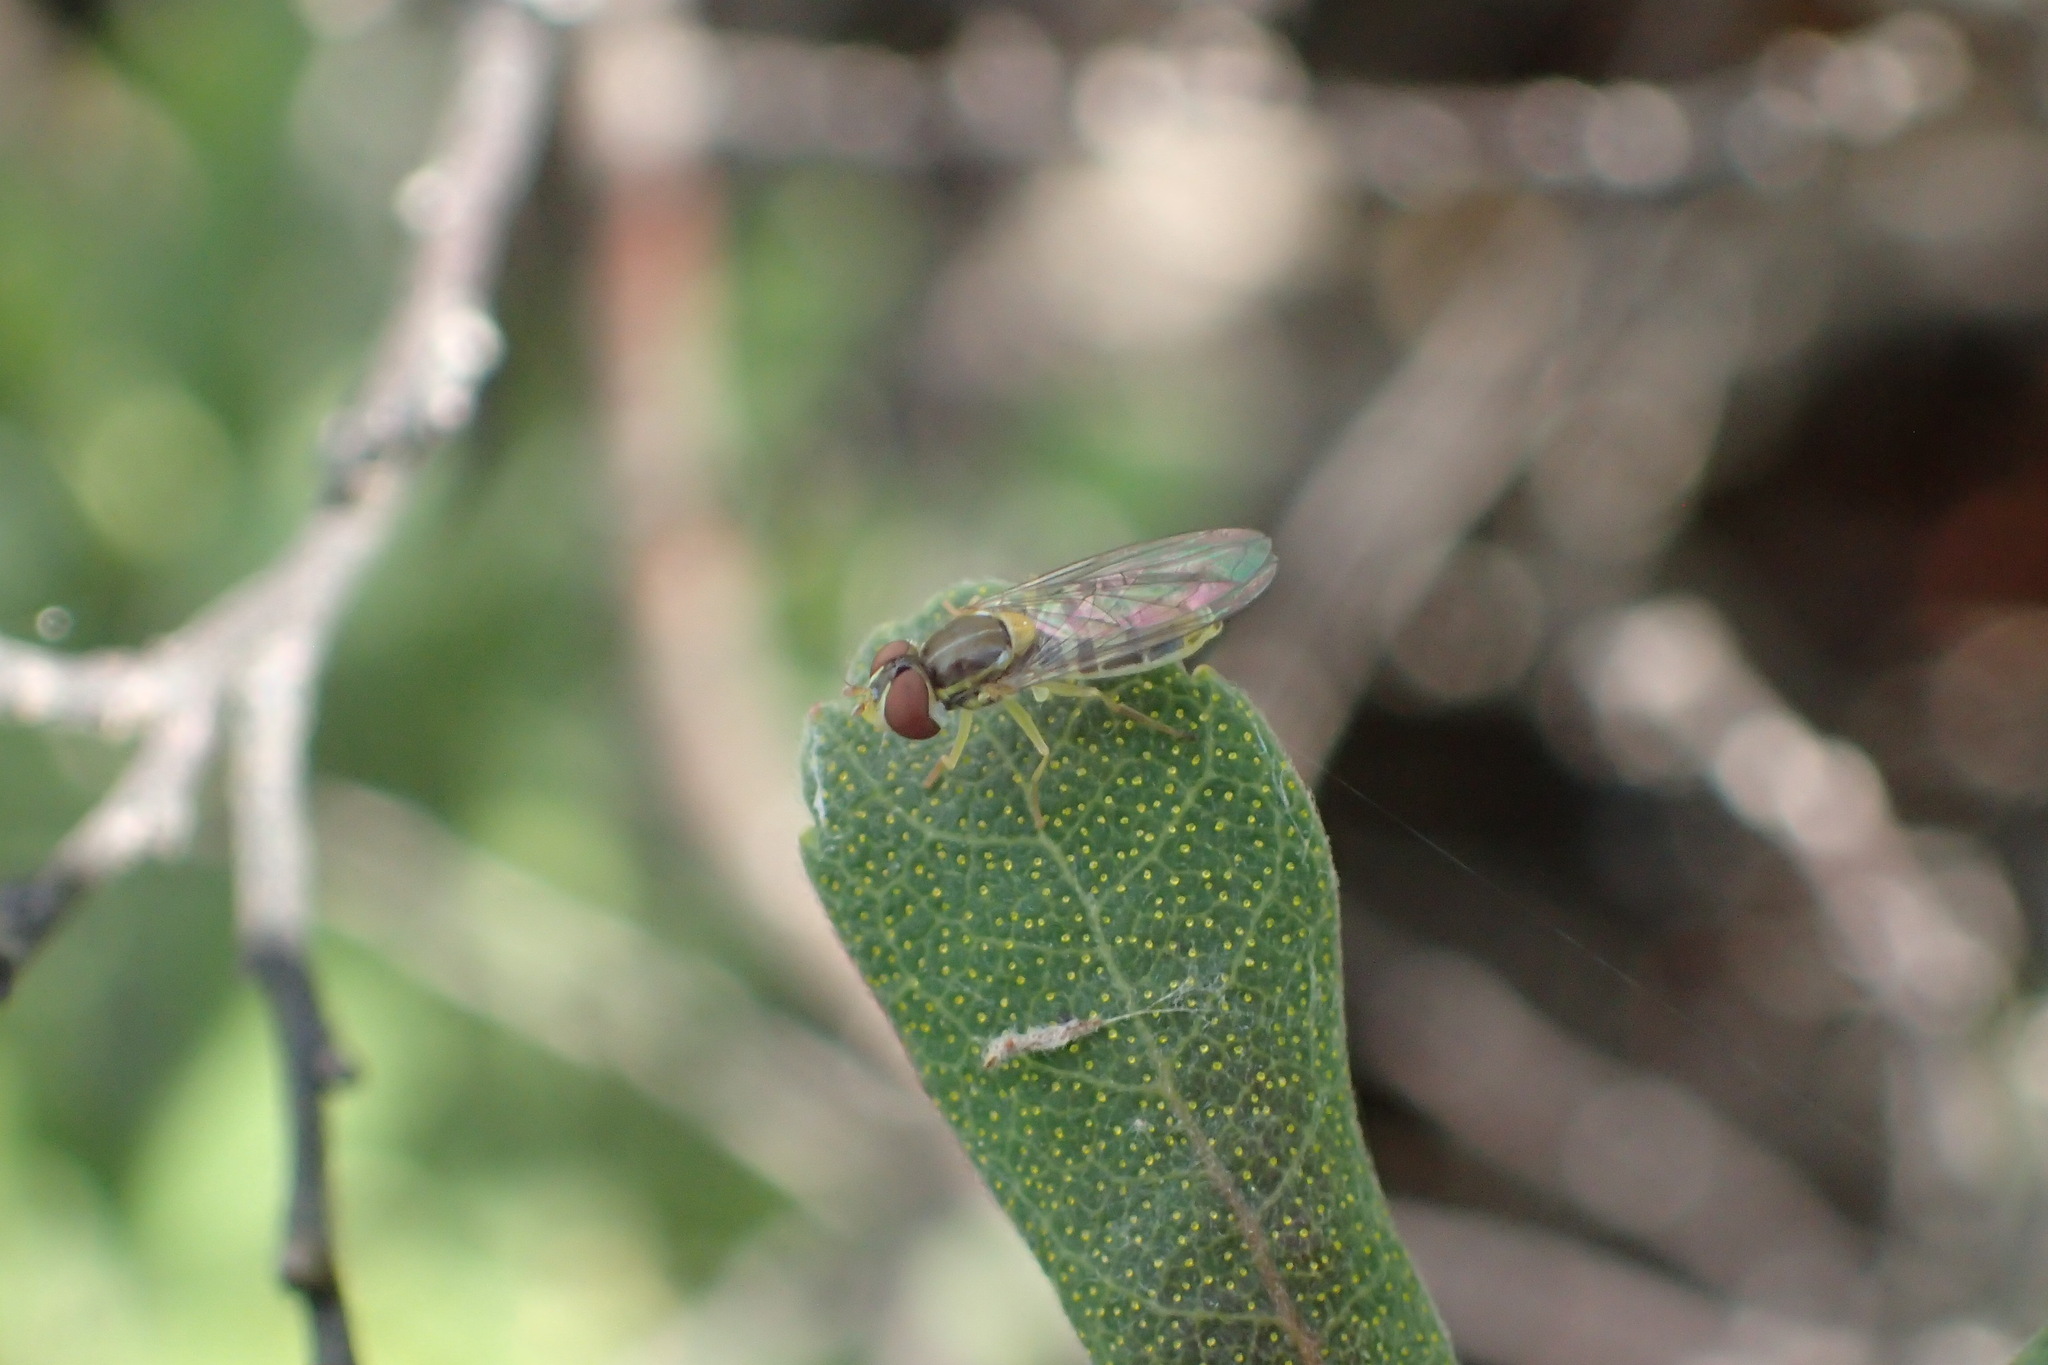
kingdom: Animalia
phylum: Arthropoda
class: Insecta
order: Diptera
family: Syrphidae
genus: Toxomerus
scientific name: Toxomerus marginatus
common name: Syrphid fly
